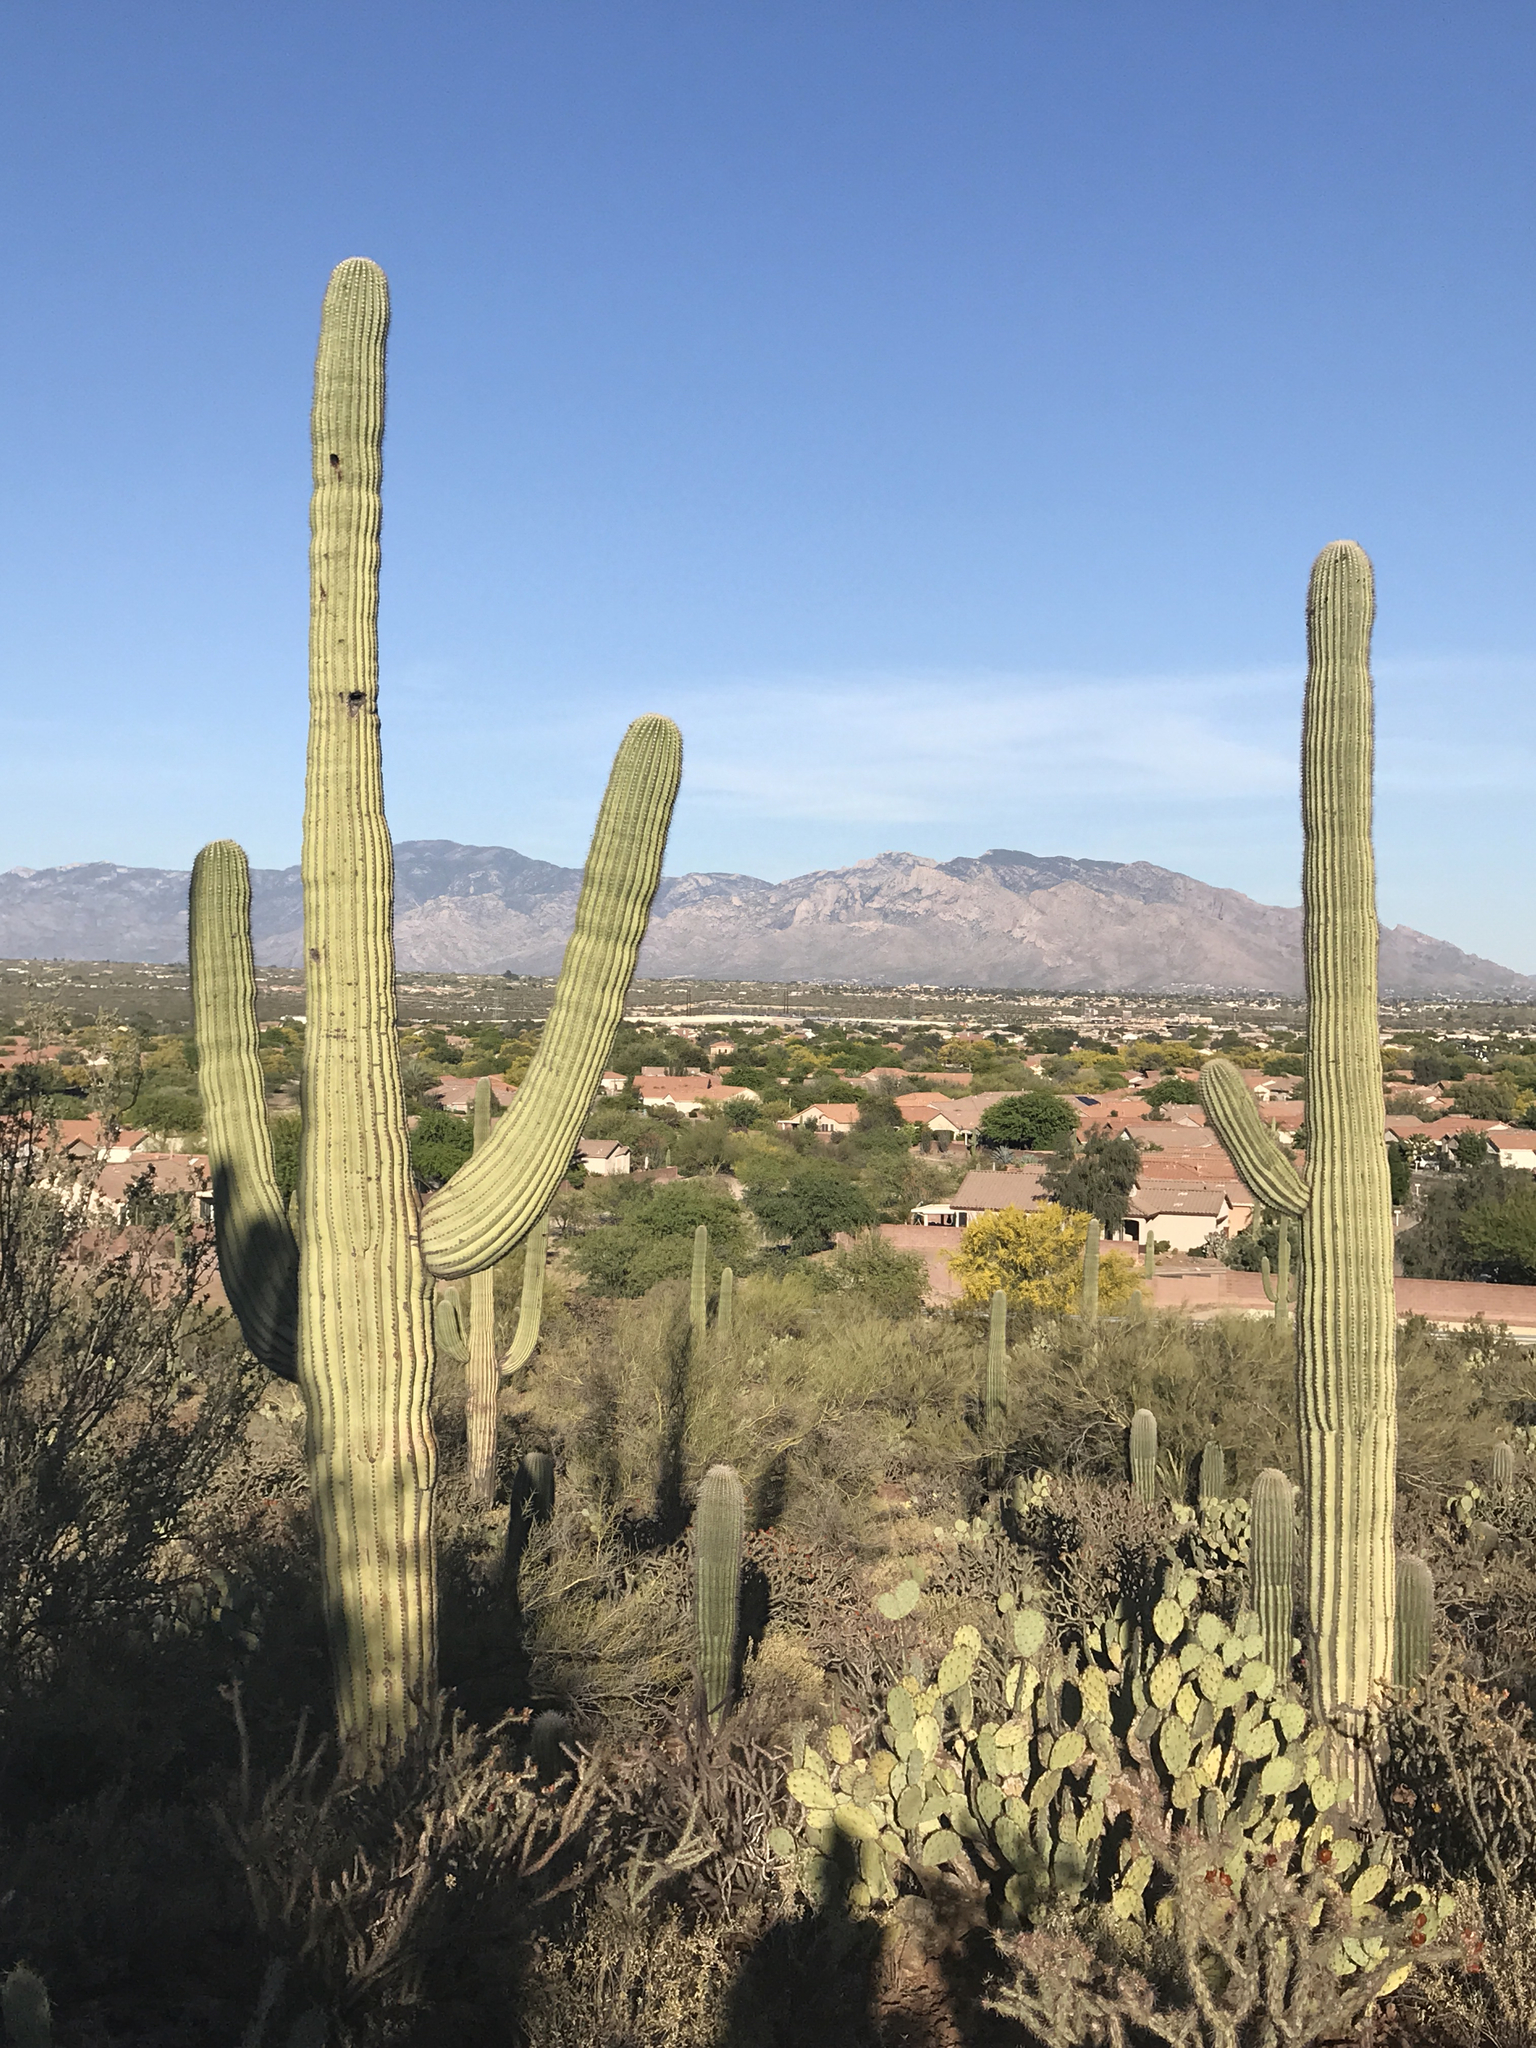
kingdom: Plantae
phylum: Tracheophyta
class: Magnoliopsida
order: Caryophyllales
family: Cactaceae
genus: Carnegiea
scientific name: Carnegiea gigantea
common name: Saguaro
